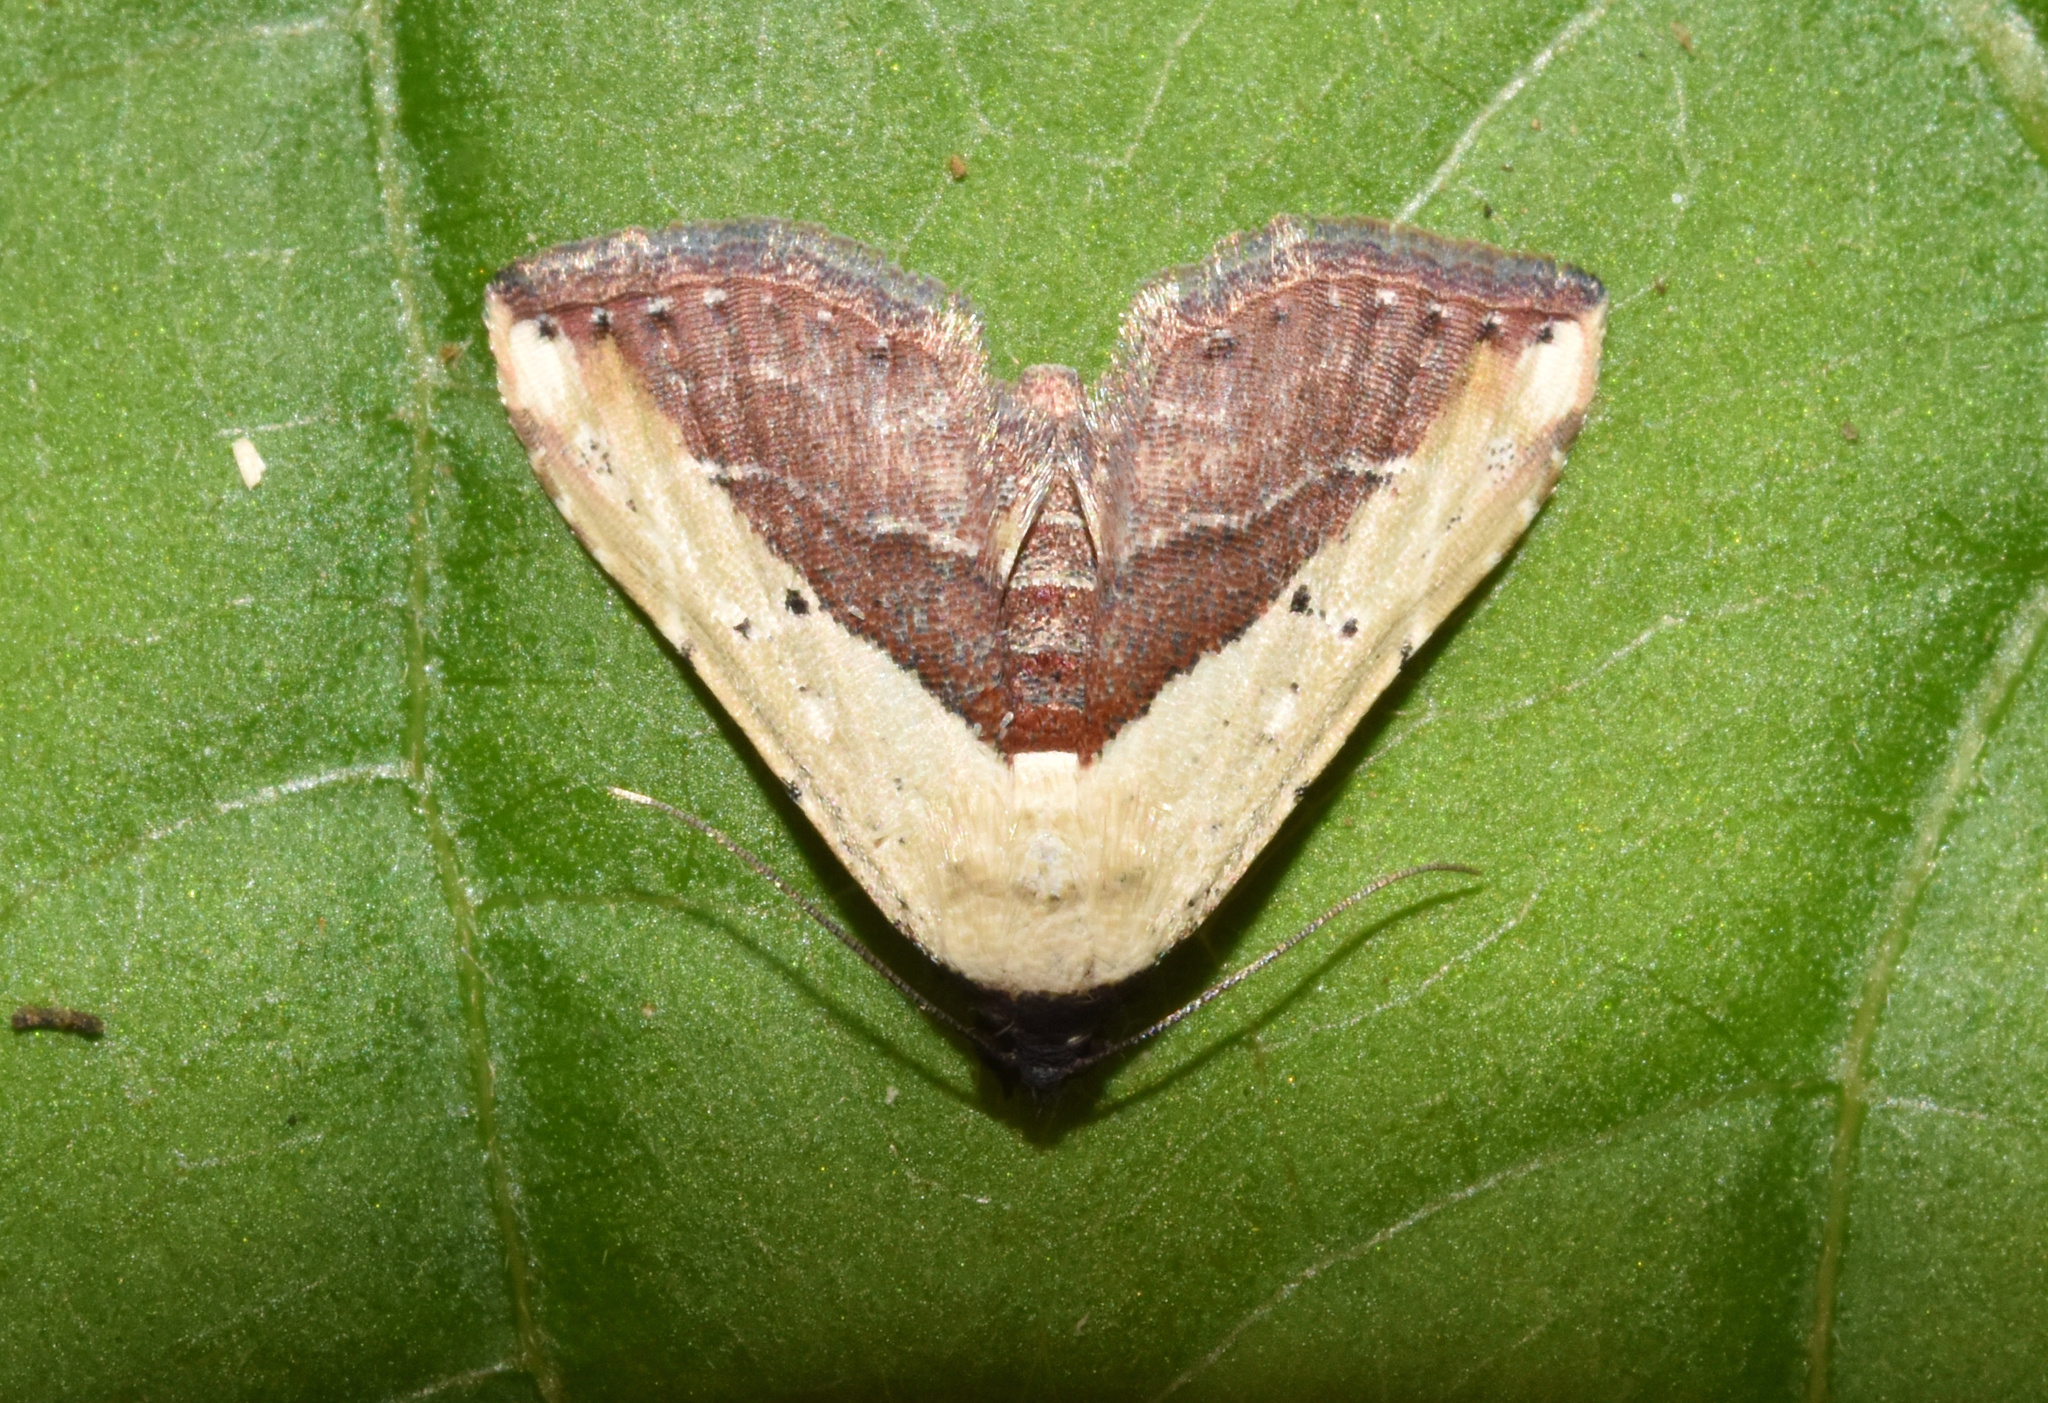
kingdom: Animalia
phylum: Arthropoda
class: Insecta
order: Lepidoptera
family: Erebidae
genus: Grammodes
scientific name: Grammodes latifera
